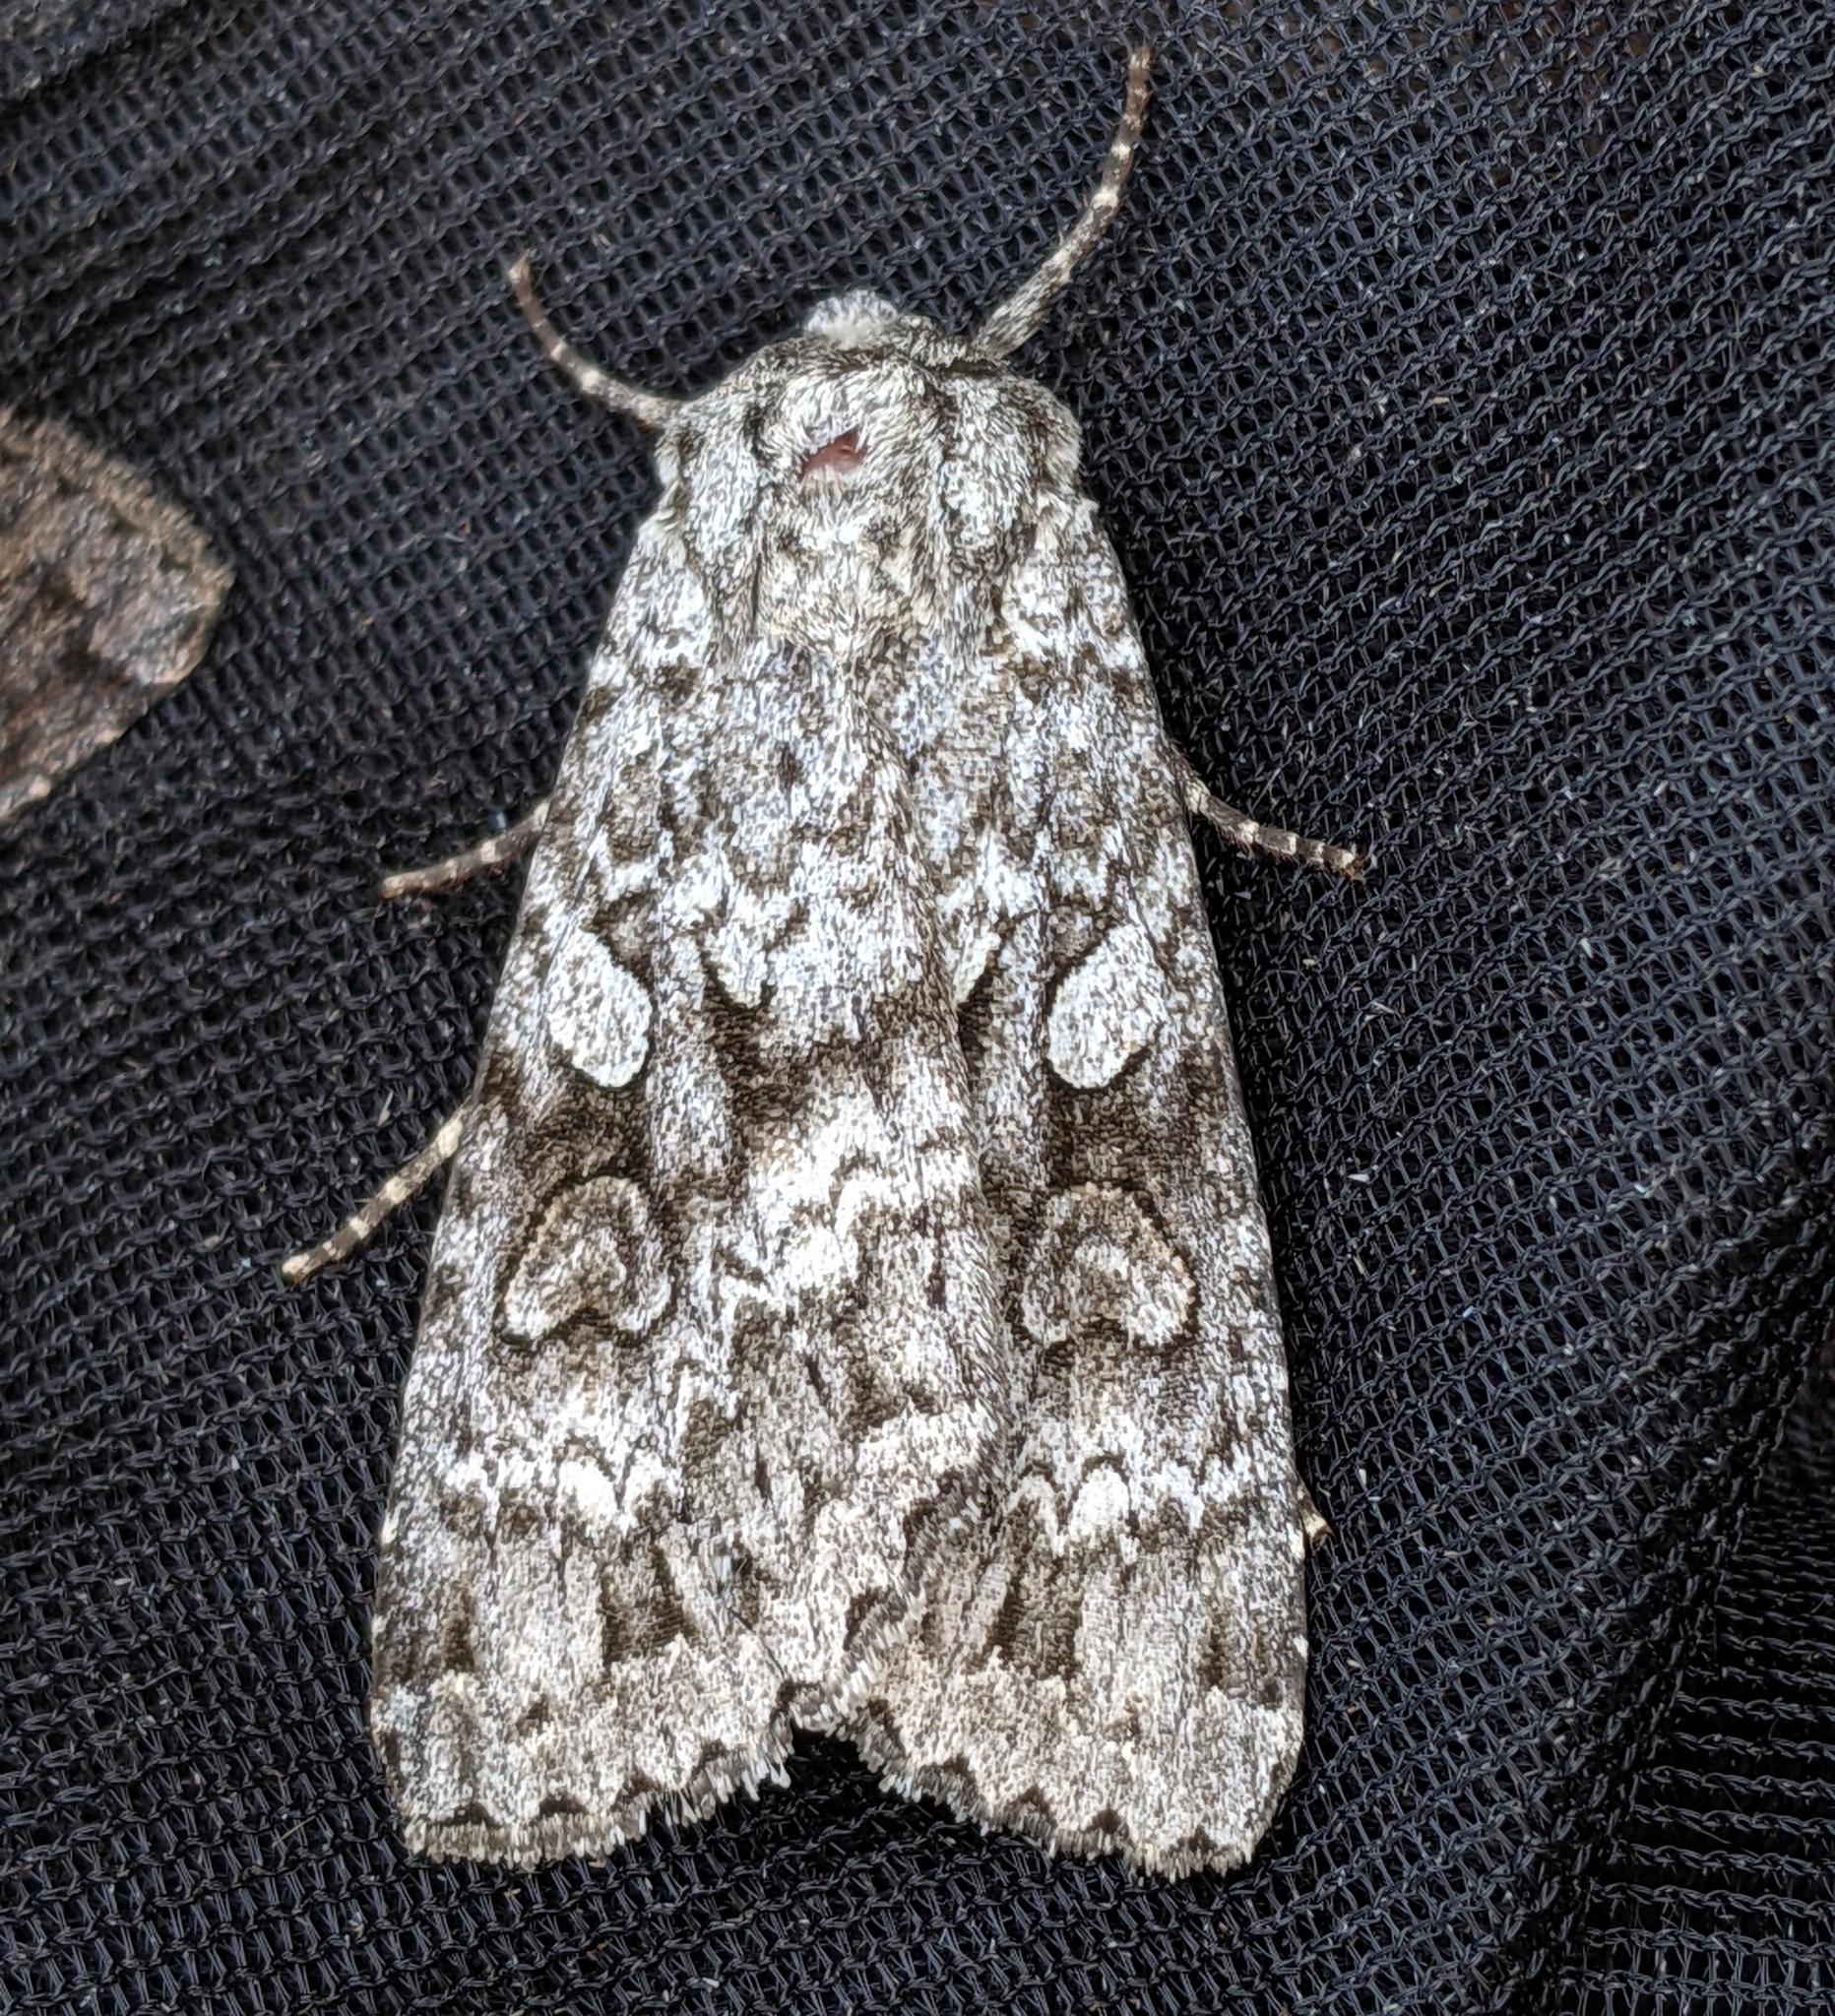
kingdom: Animalia
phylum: Arthropoda
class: Insecta
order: Lepidoptera
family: Noctuidae
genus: Eurois
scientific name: Eurois occulta
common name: Great brocade
